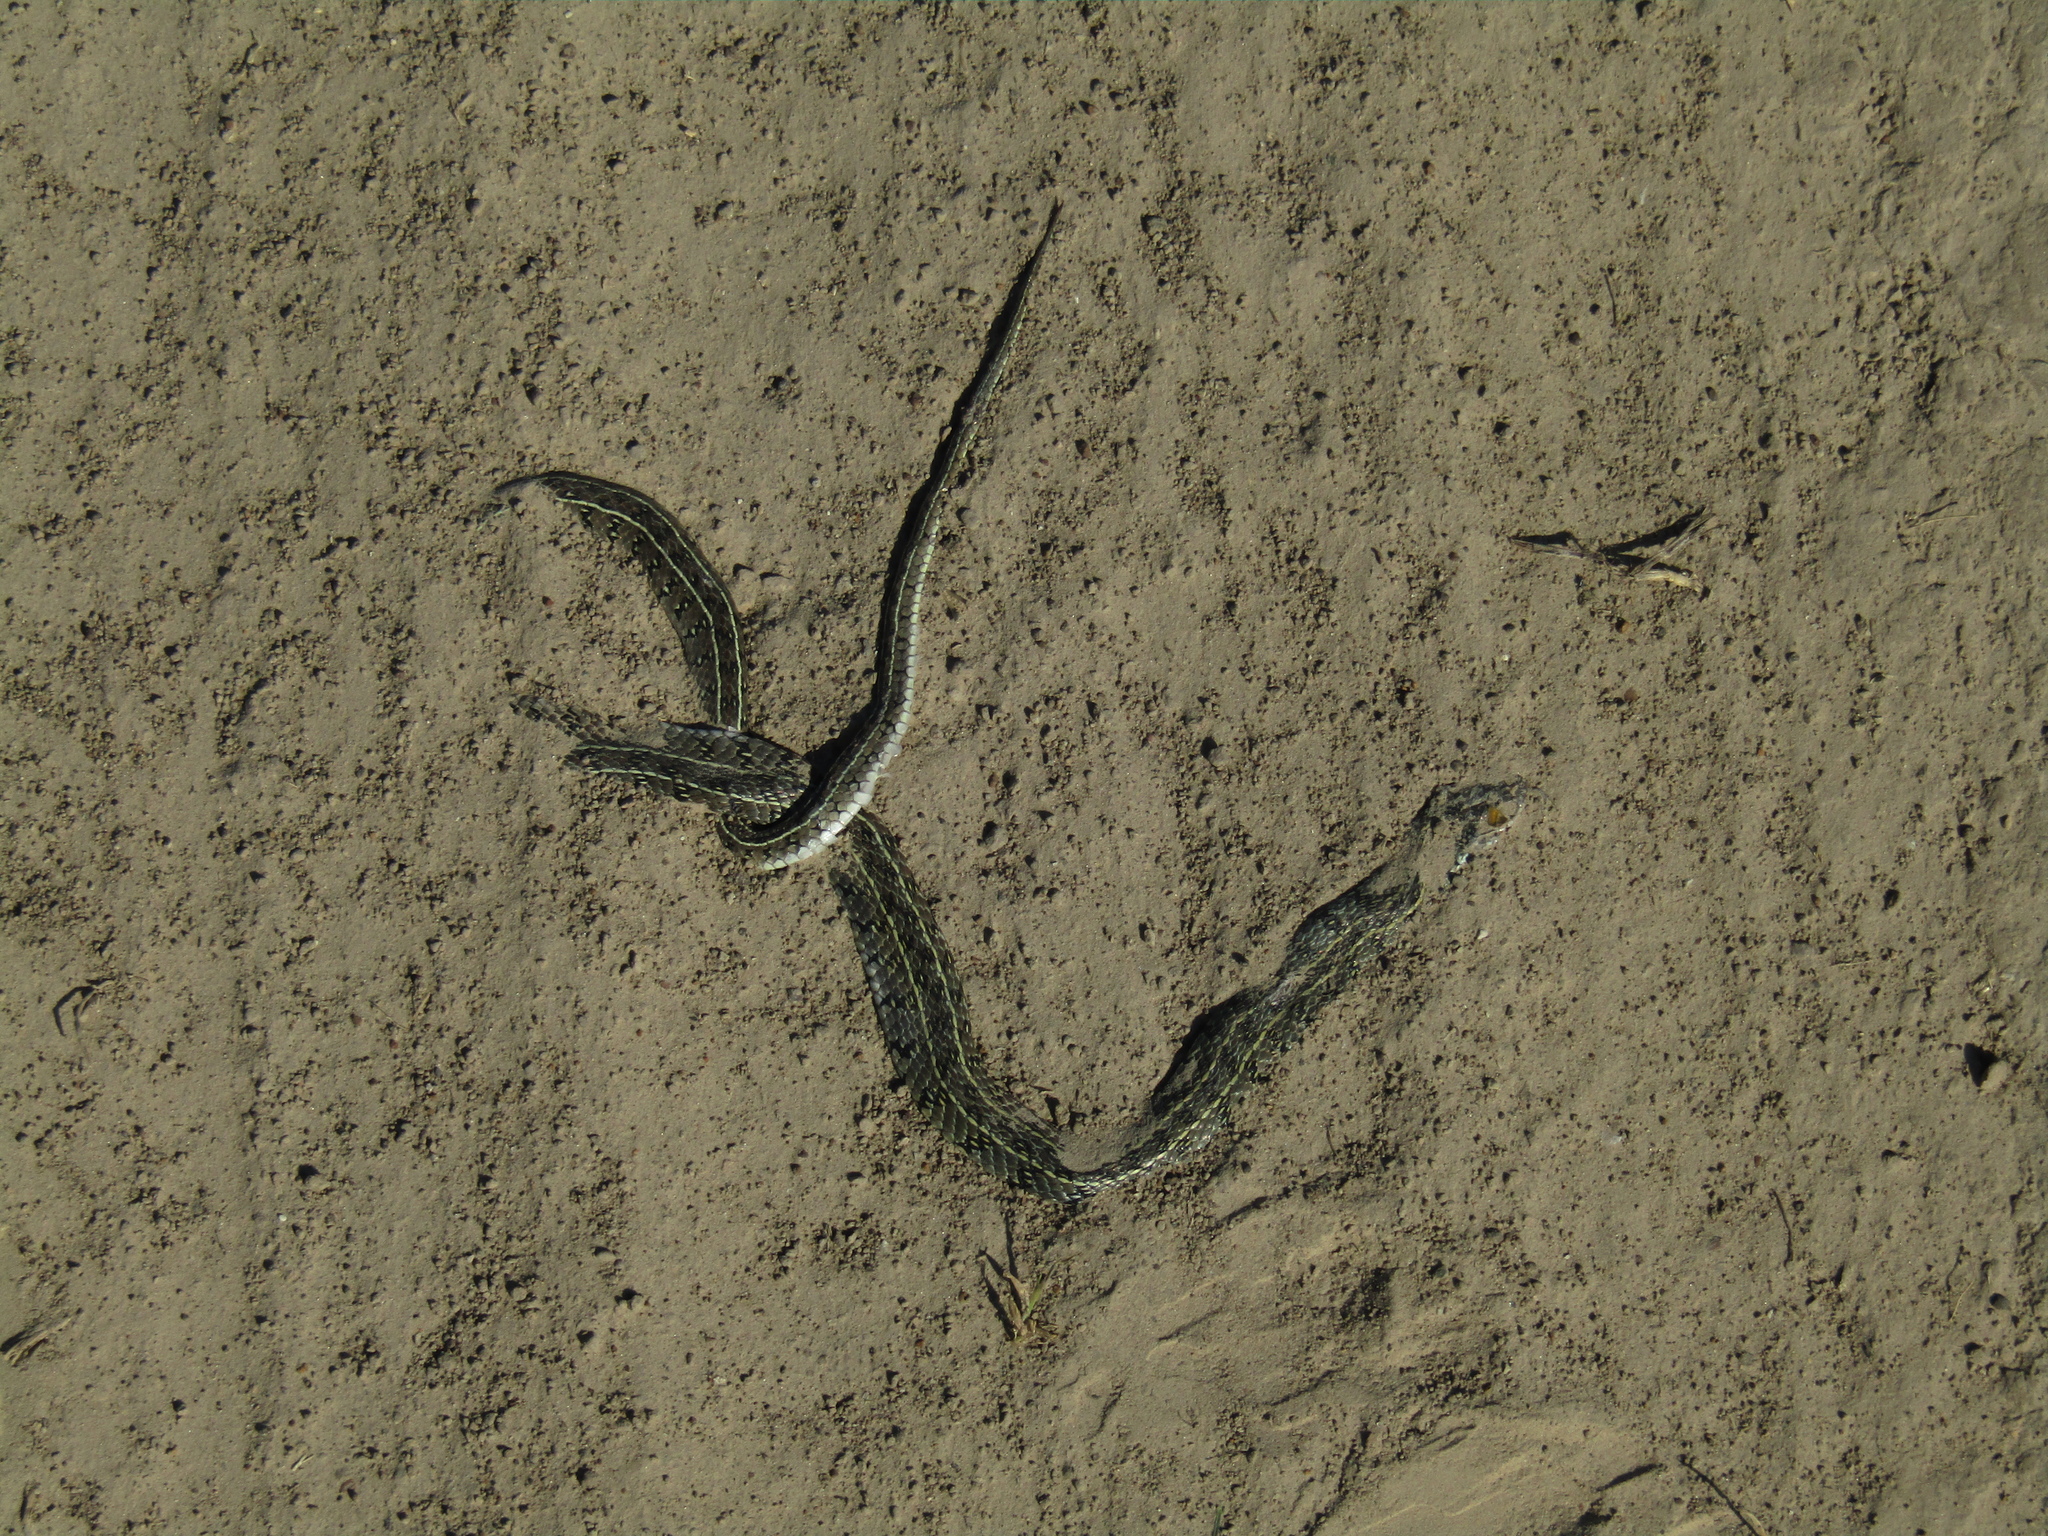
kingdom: Animalia
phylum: Chordata
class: Squamata
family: Colubridae
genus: Lygophis
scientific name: Lygophis anomalus
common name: English common name not available
